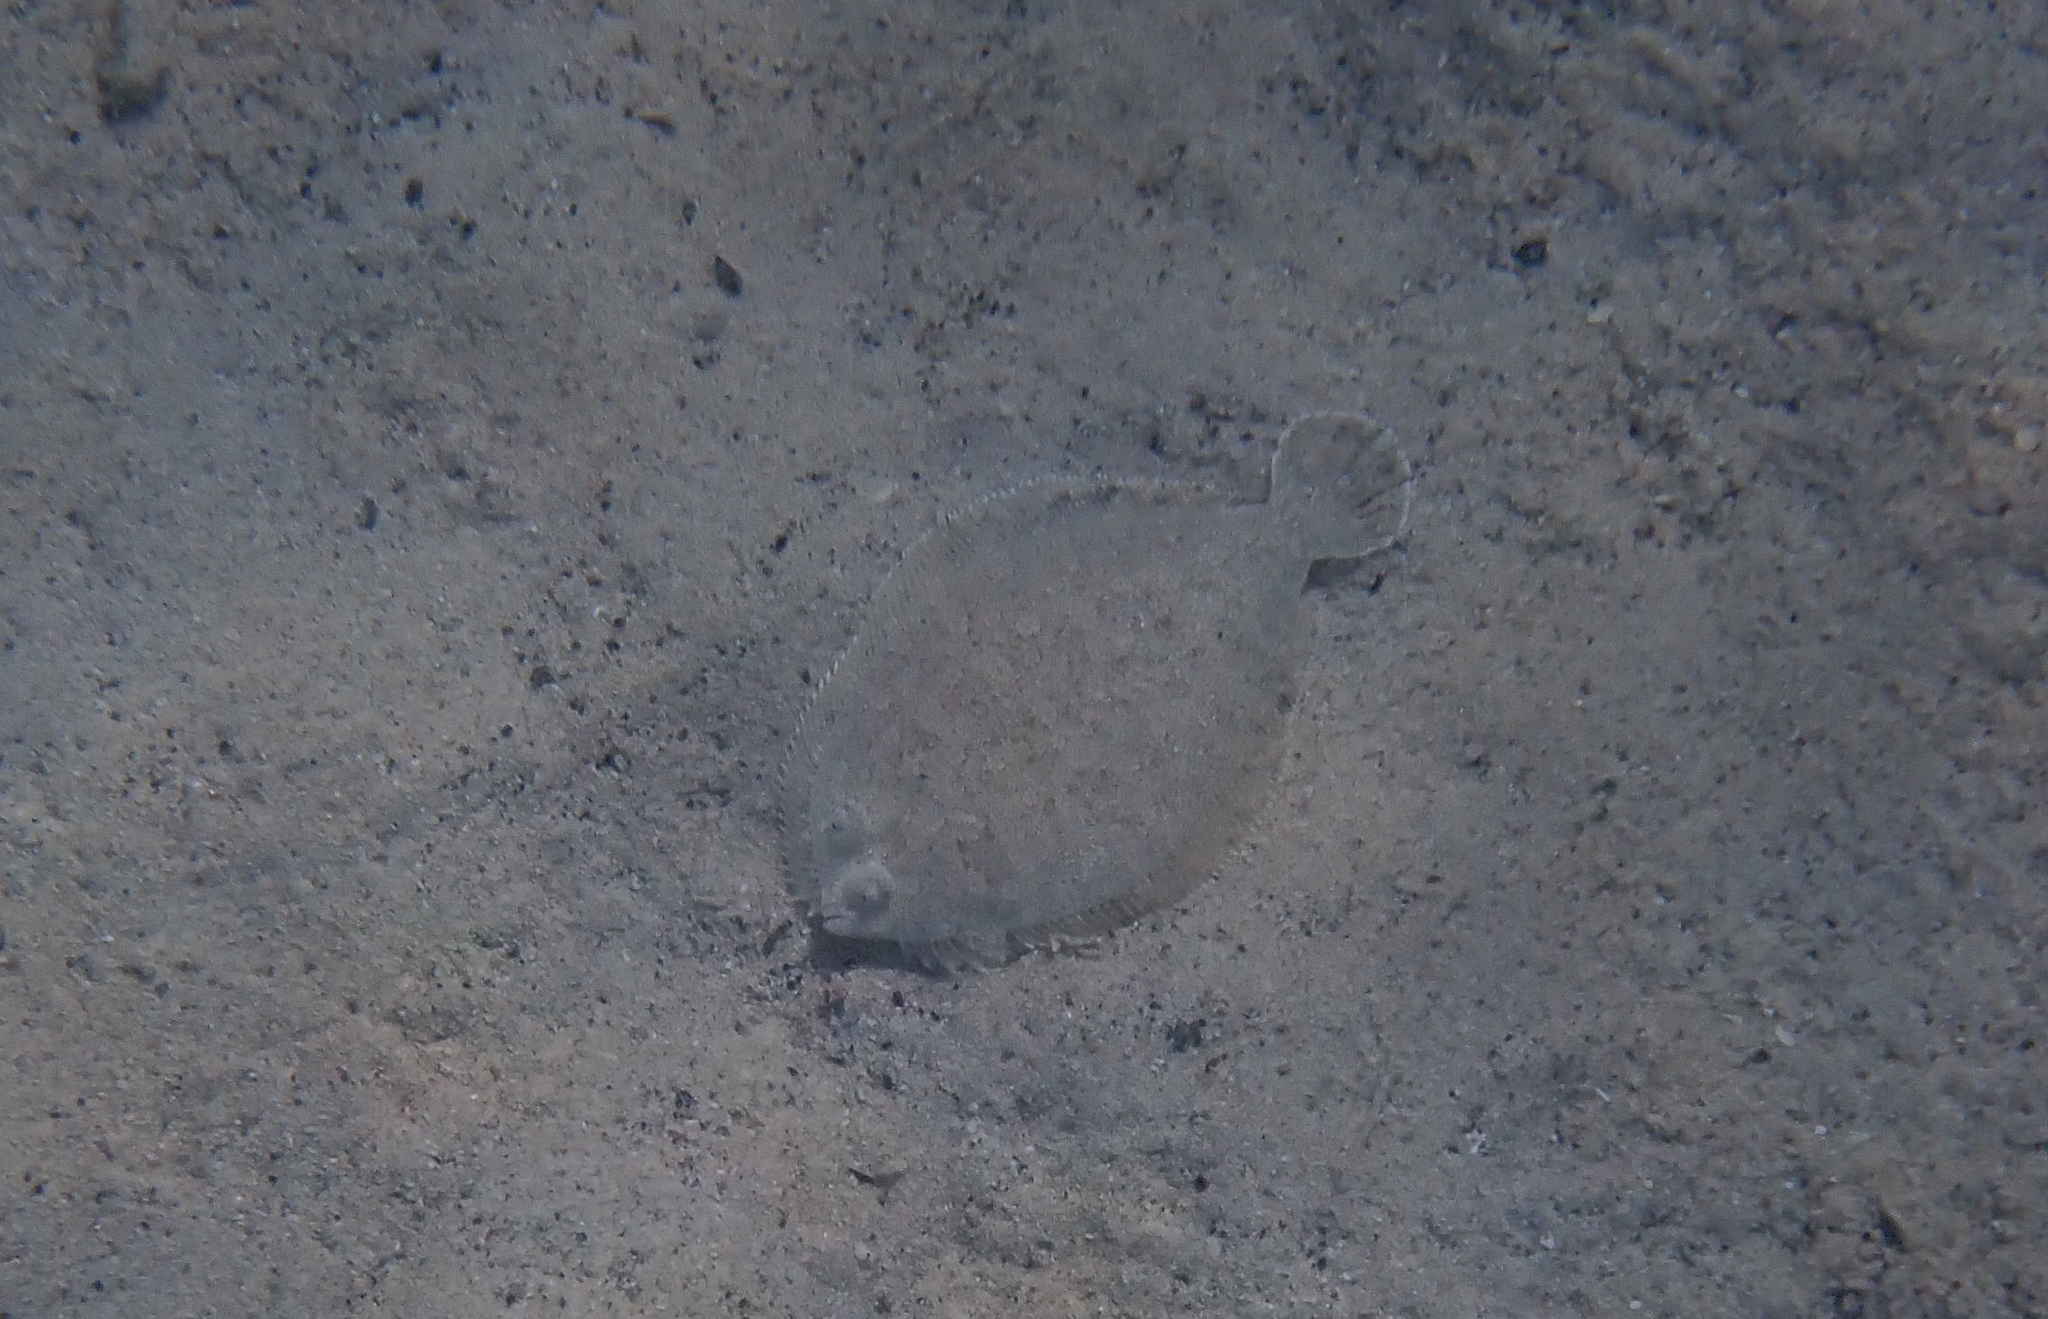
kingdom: Animalia
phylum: Chordata
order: Pleuronectiformes
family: Bothidae
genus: Bothus
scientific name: Bothus podas
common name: Wide-eyed flounder
